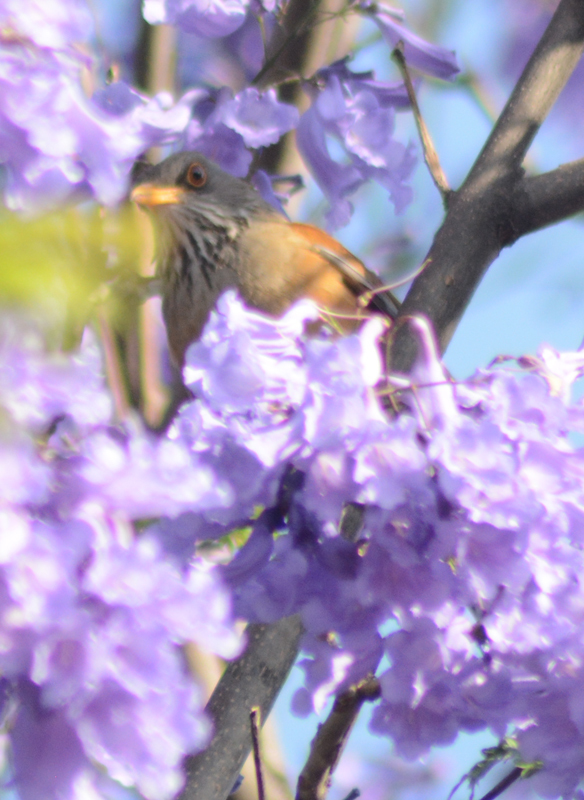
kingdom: Animalia
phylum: Chordata
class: Aves
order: Passeriformes
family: Turdidae
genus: Turdus
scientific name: Turdus rufopalliatus
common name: Rufous-backed robin
